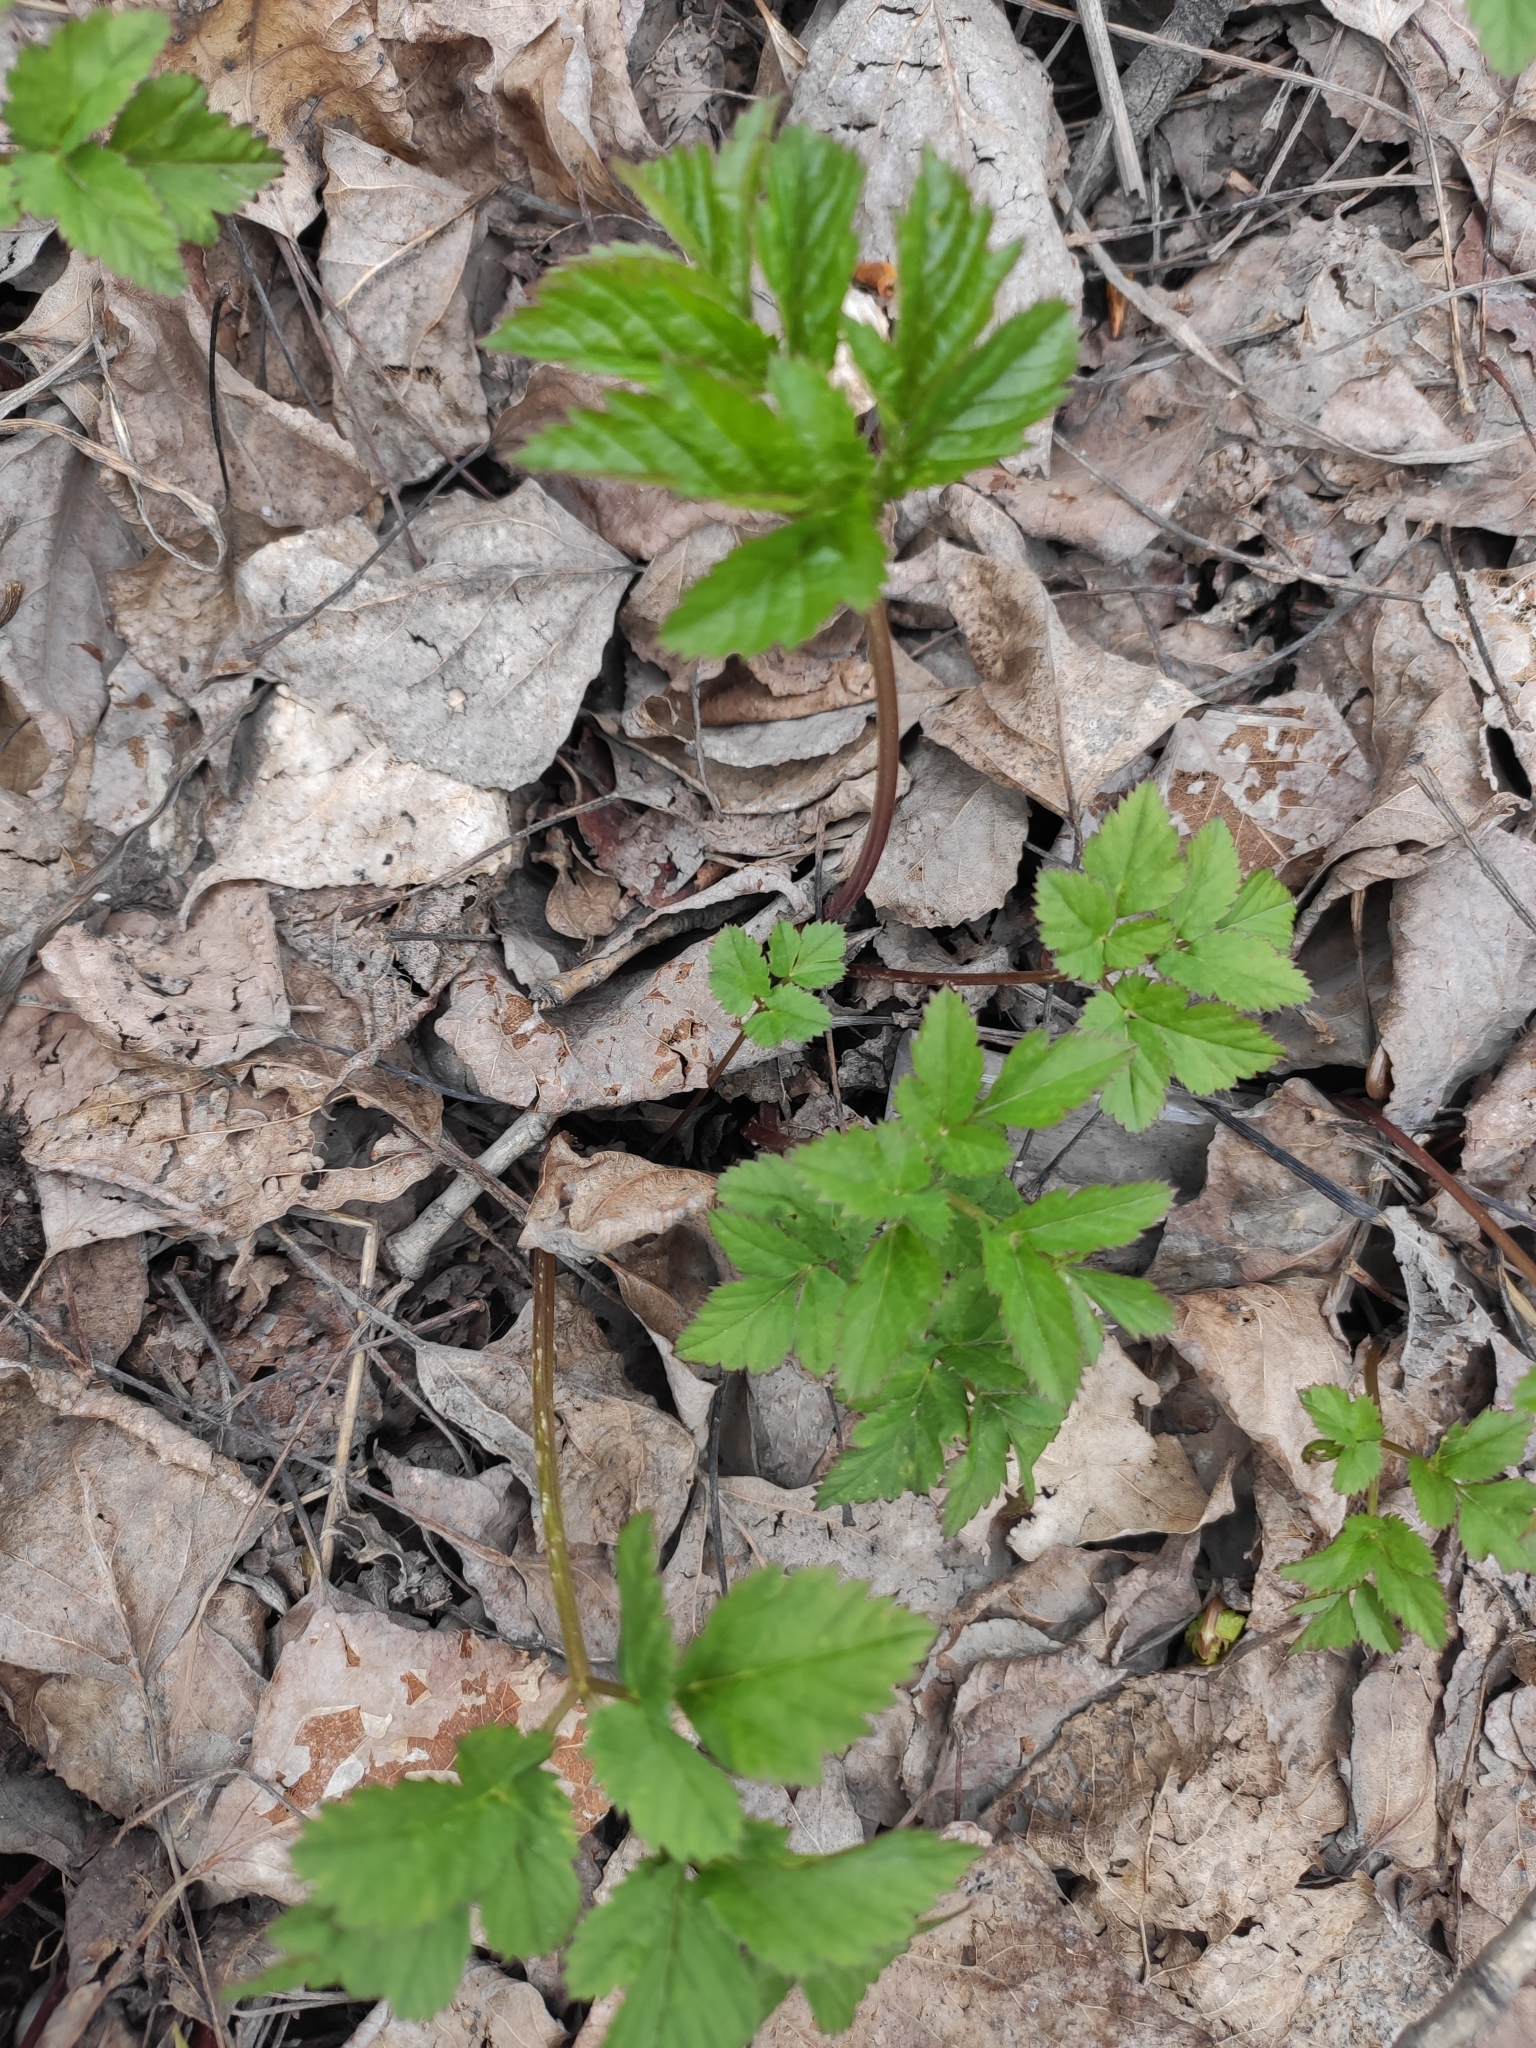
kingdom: Plantae
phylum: Tracheophyta
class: Magnoliopsida
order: Apiales
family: Apiaceae
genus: Aegopodium
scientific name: Aegopodium podagraria
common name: Ground-elder
